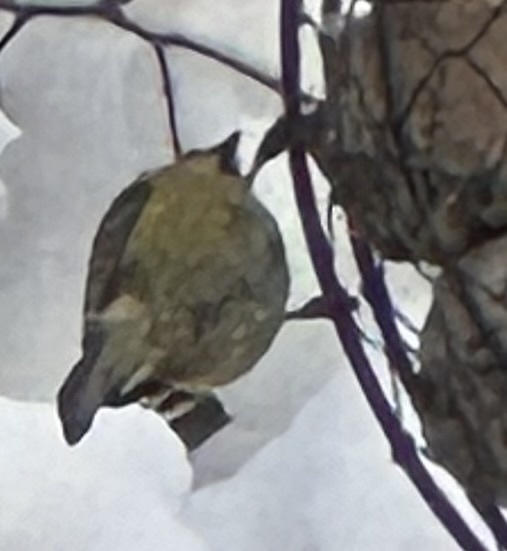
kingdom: Animalia
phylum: Chordata
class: Aves
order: Passeriformes
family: Paridae
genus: Cyanistes
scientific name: Cyanistes caeruleus
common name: Eurasian blue tit
